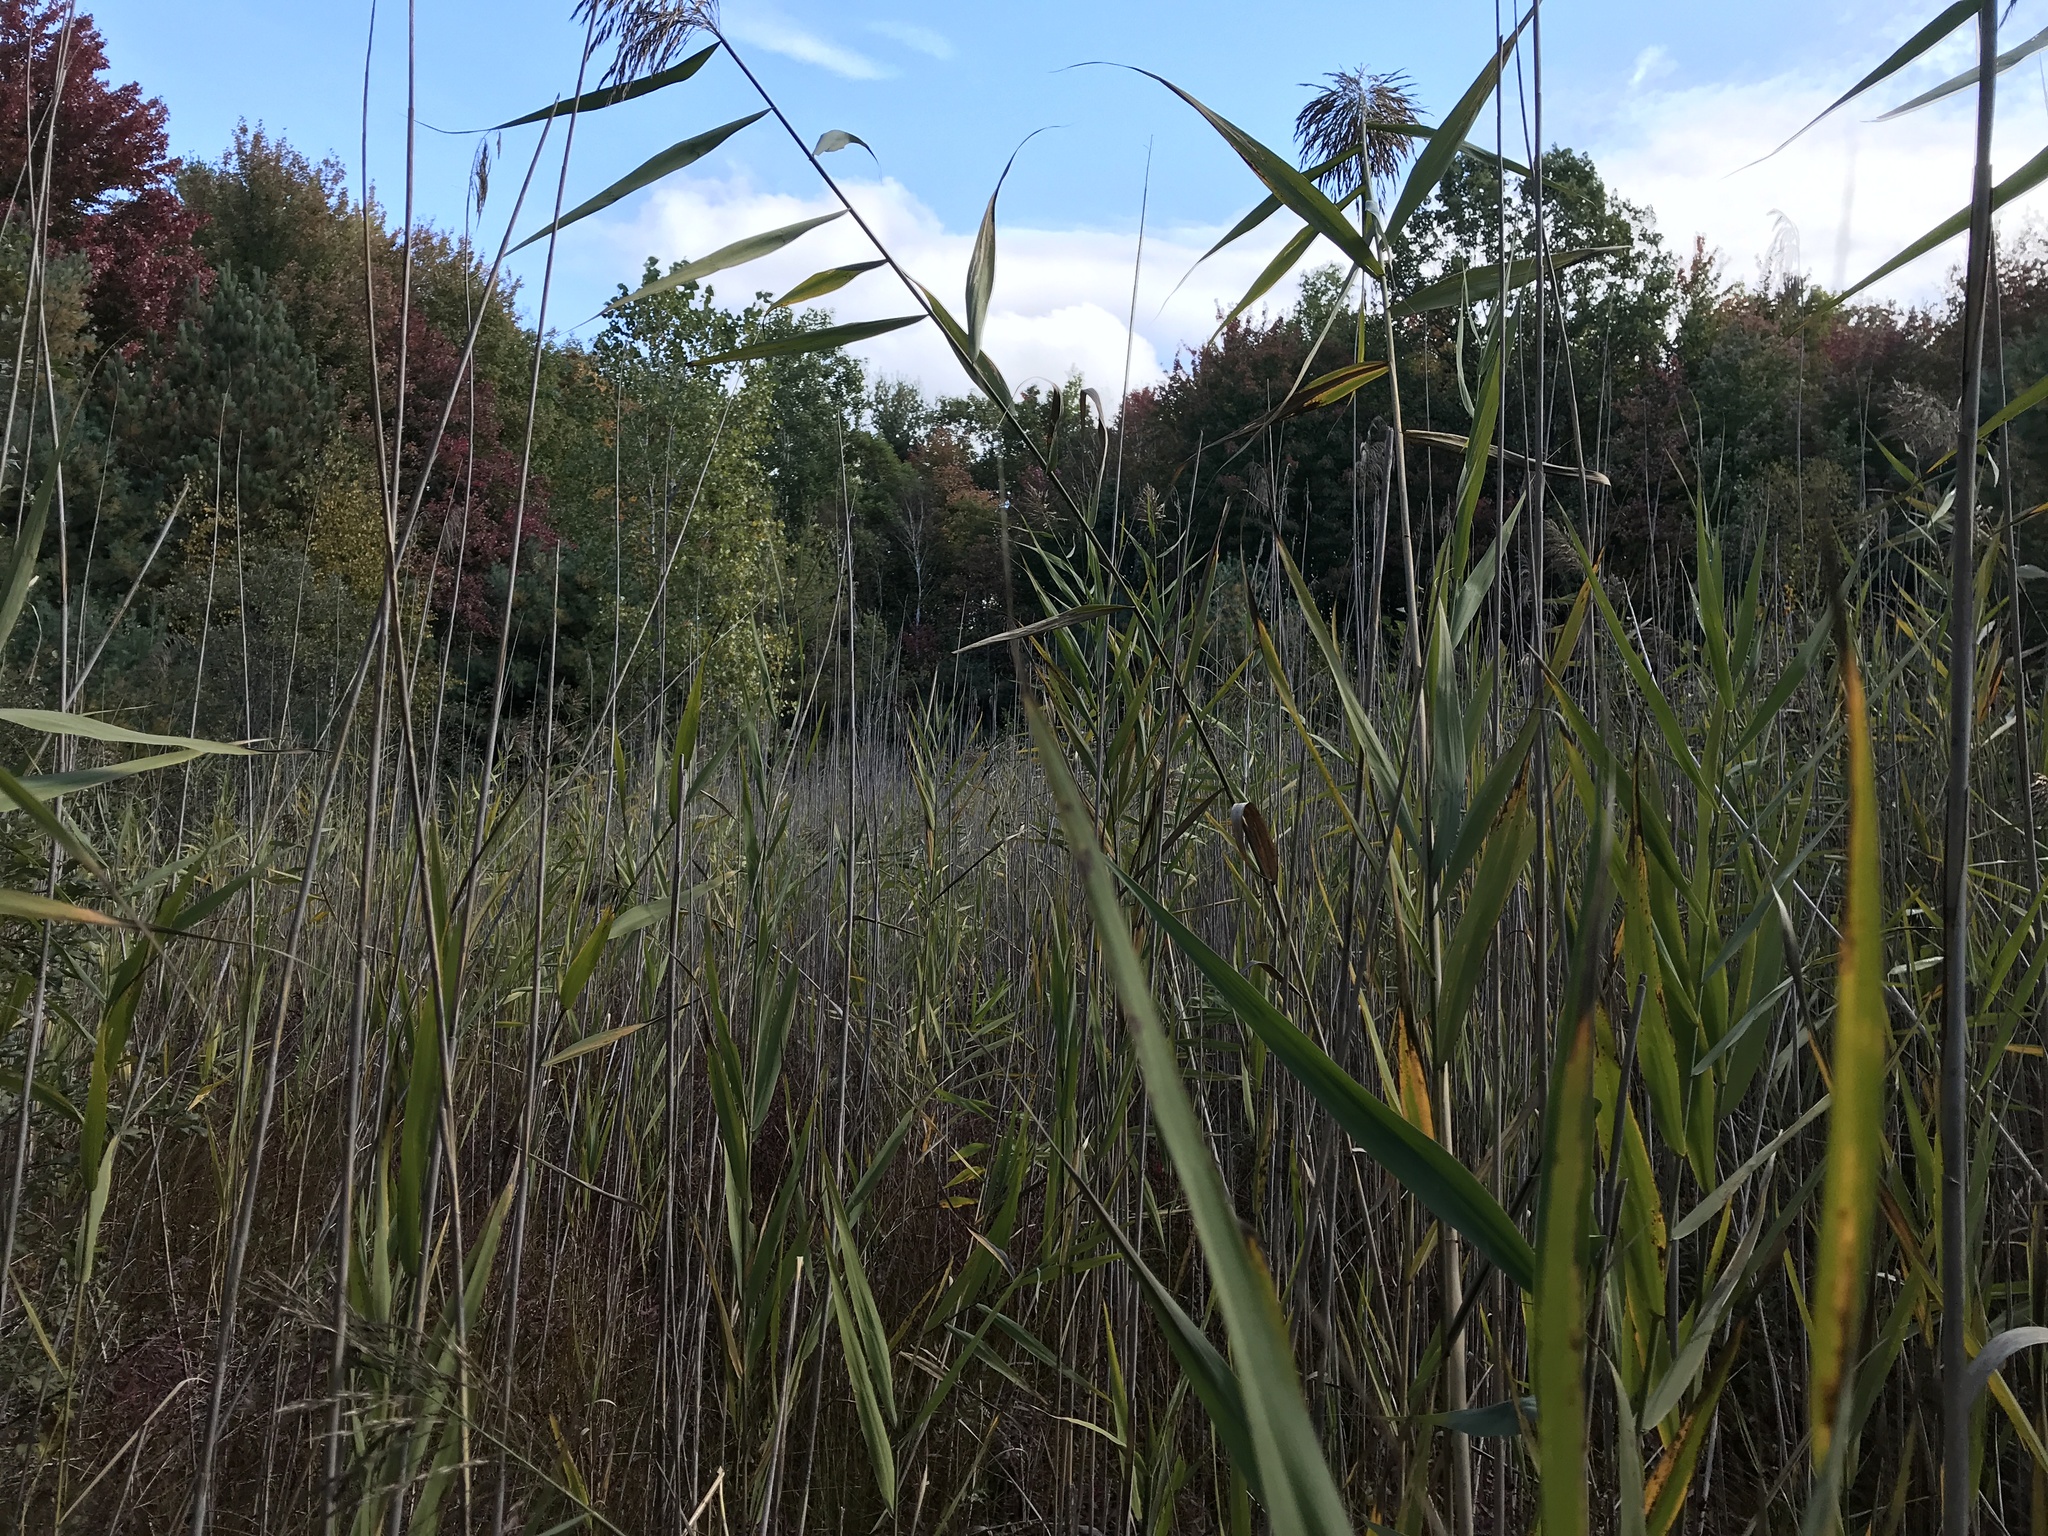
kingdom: Plantae
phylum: Tracheophyta
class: Liliopsida
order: Poales
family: Poaceae
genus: Phragmites
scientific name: Phragmites australis
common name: Common reed
